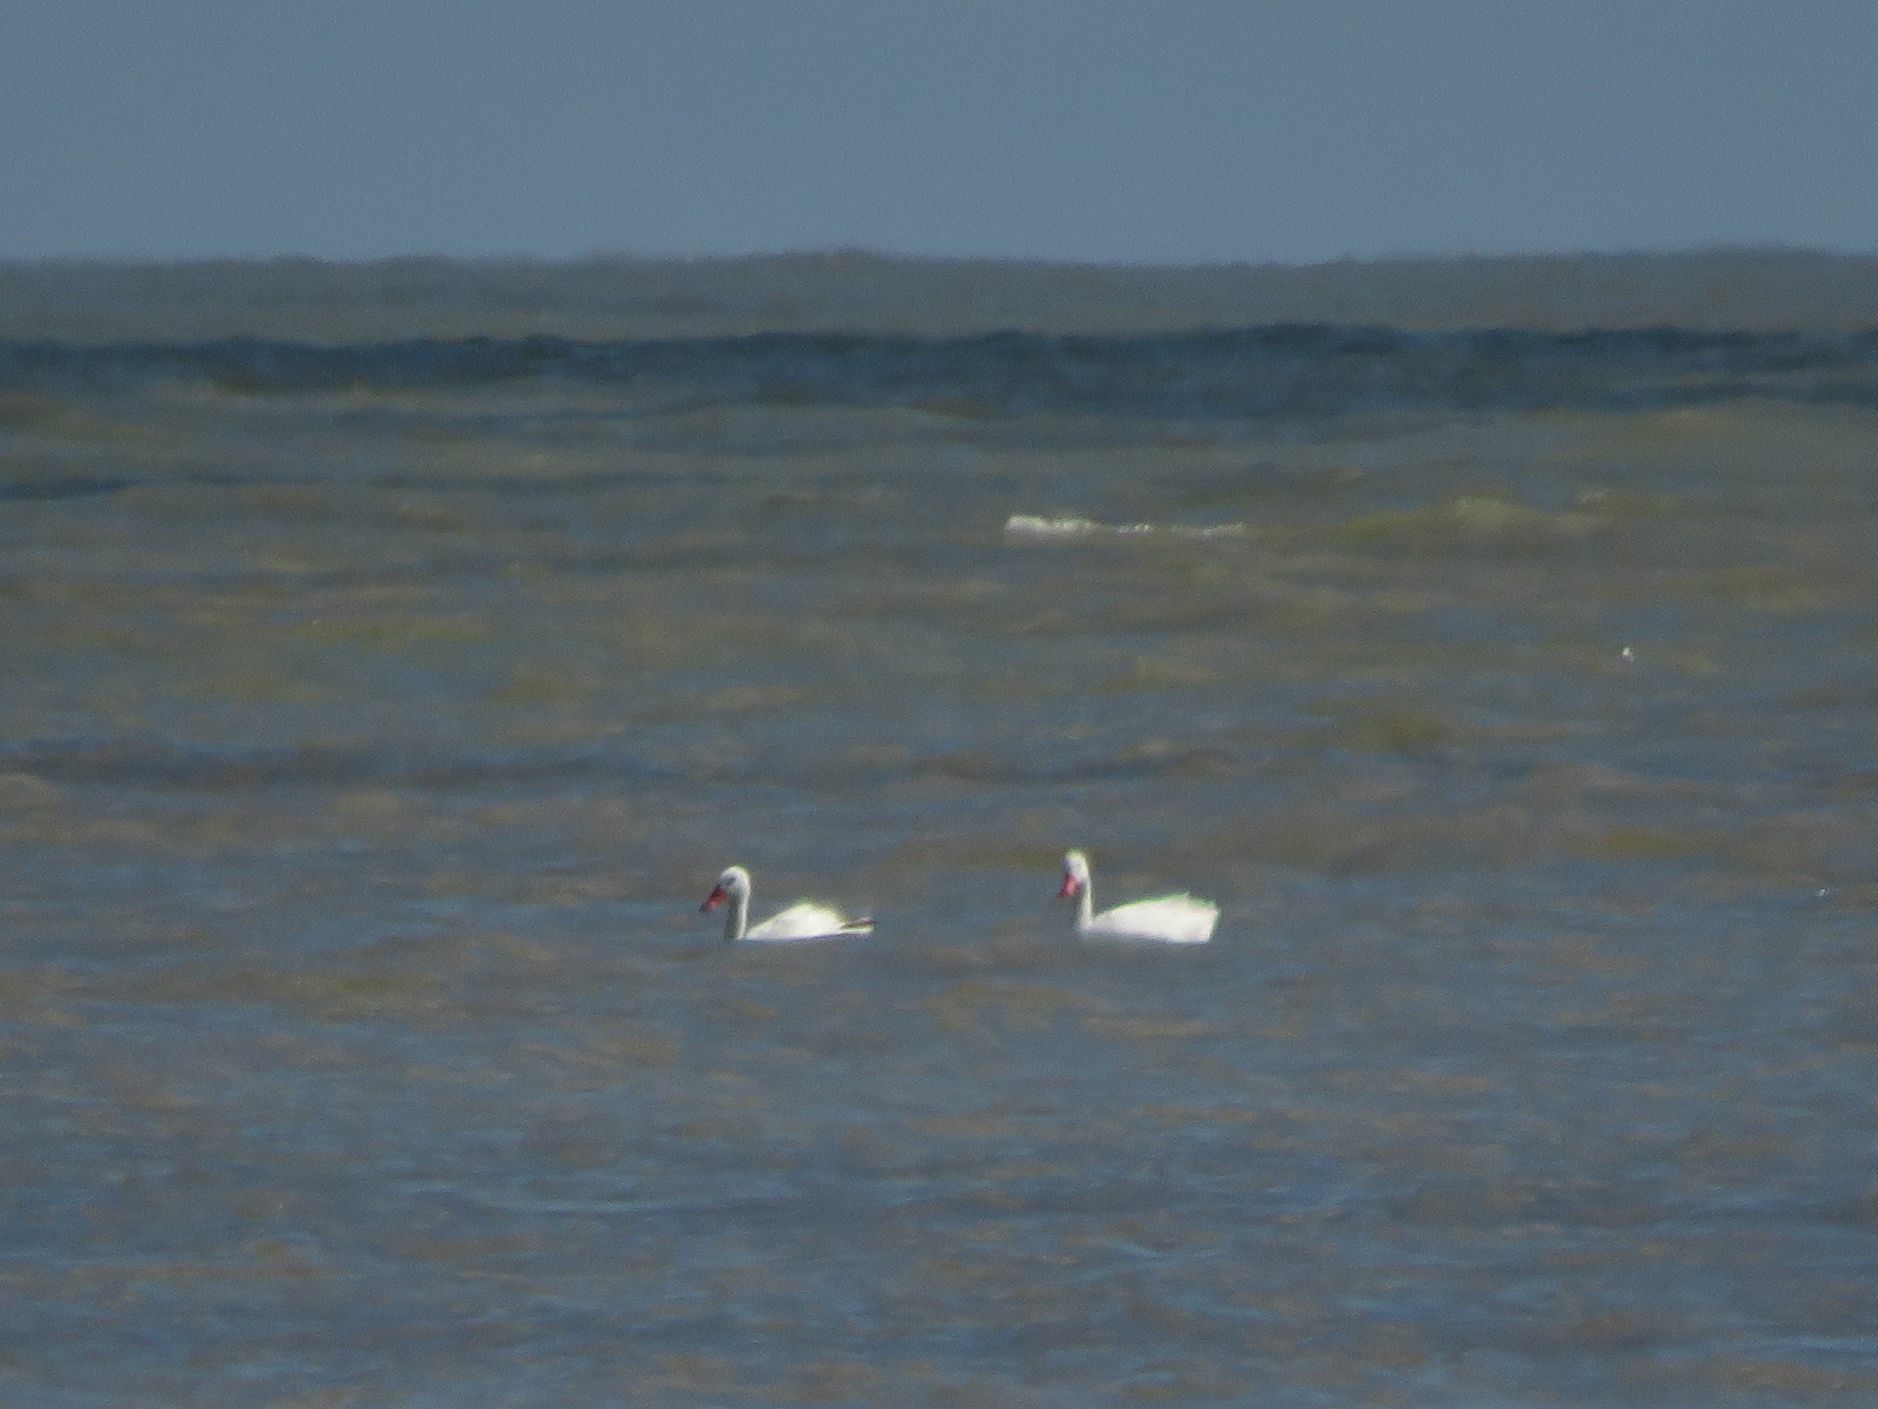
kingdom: Animalia
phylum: Chordata
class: Aves
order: Anseriformes
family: Anatidae
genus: Coscoroba
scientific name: Coscoroba coscoroba
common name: Coscoroba swan
